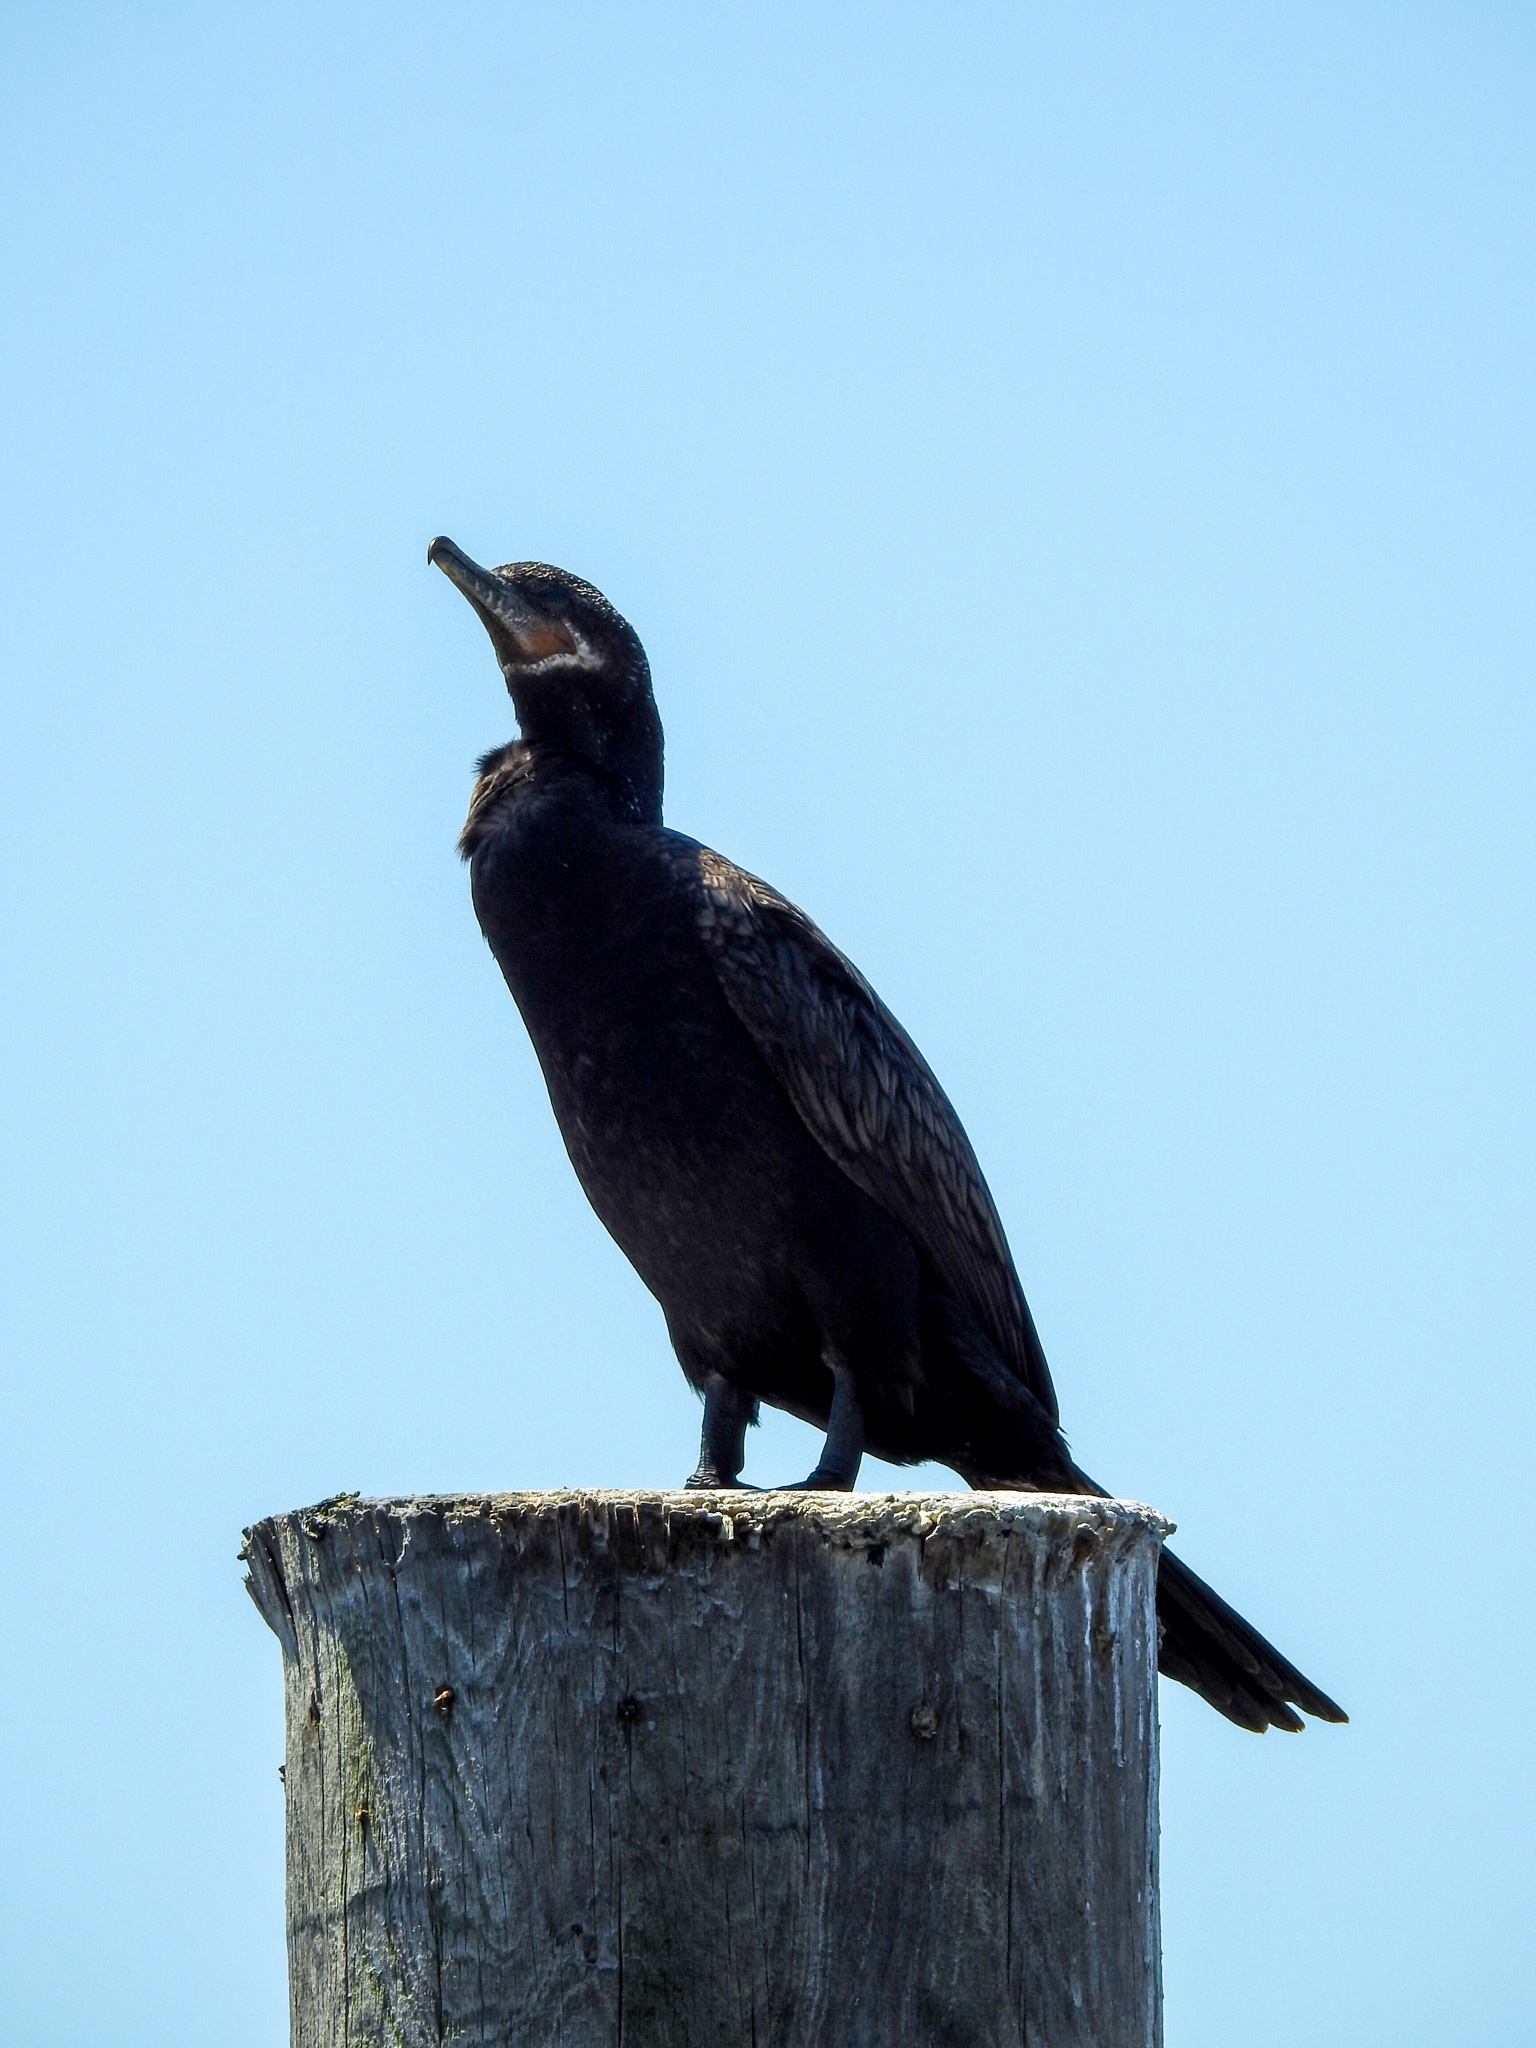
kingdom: Animalia
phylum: Chordata
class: Aves
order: Suliformes
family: Phalacrocoracidae
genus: Phalacrocorax
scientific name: Phalacrocorax brasilianus
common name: Neotropic cormorant
